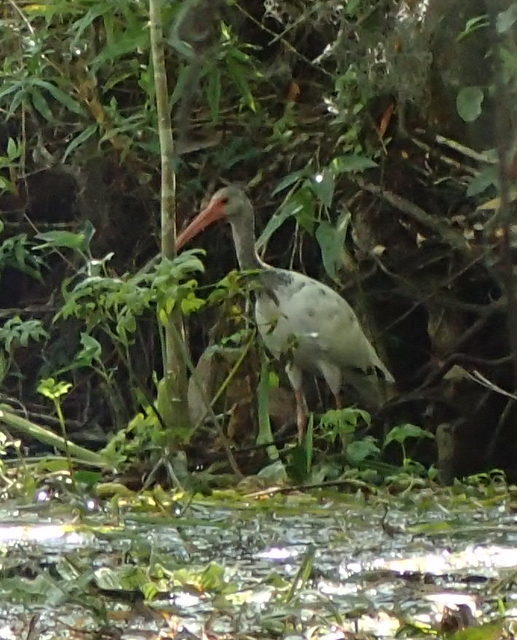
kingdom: Animalia
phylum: Chordata
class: Aves
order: Pelecaniformes
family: Threskiornithidae
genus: Eudocimus
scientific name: Eudocimus albus
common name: White ibis
